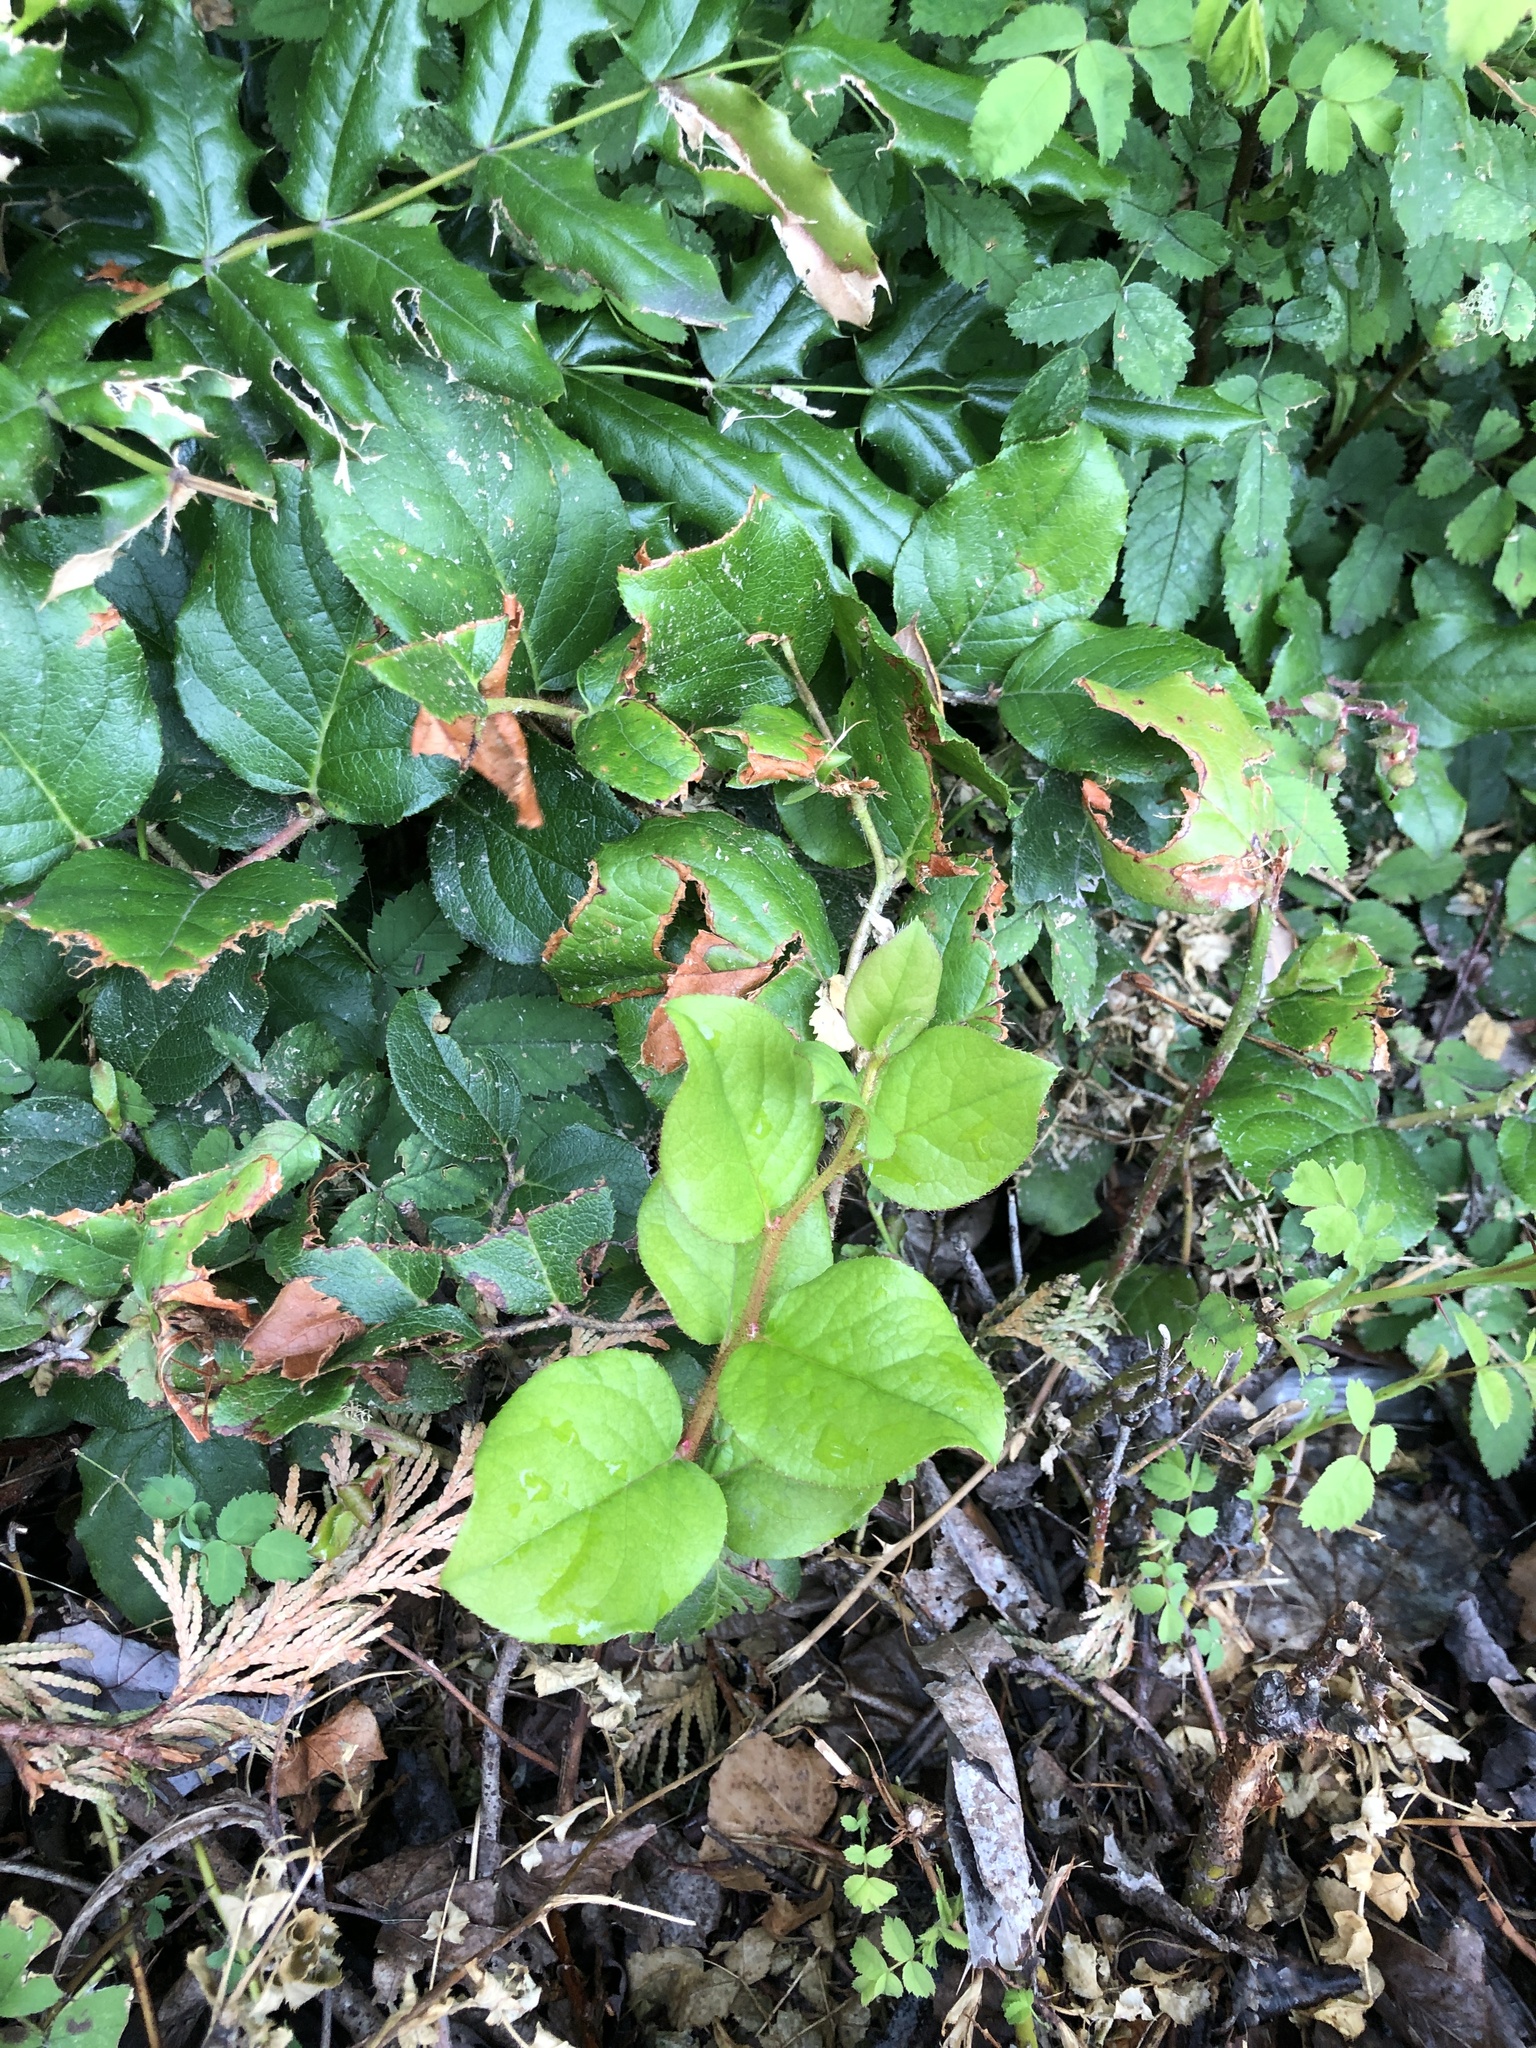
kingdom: Plantae
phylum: Tracheophyta
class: Magnoliopsida
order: Ericales
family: Ericaceae
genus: Gaultheria
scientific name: Gaultheria shallon
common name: Shallon
